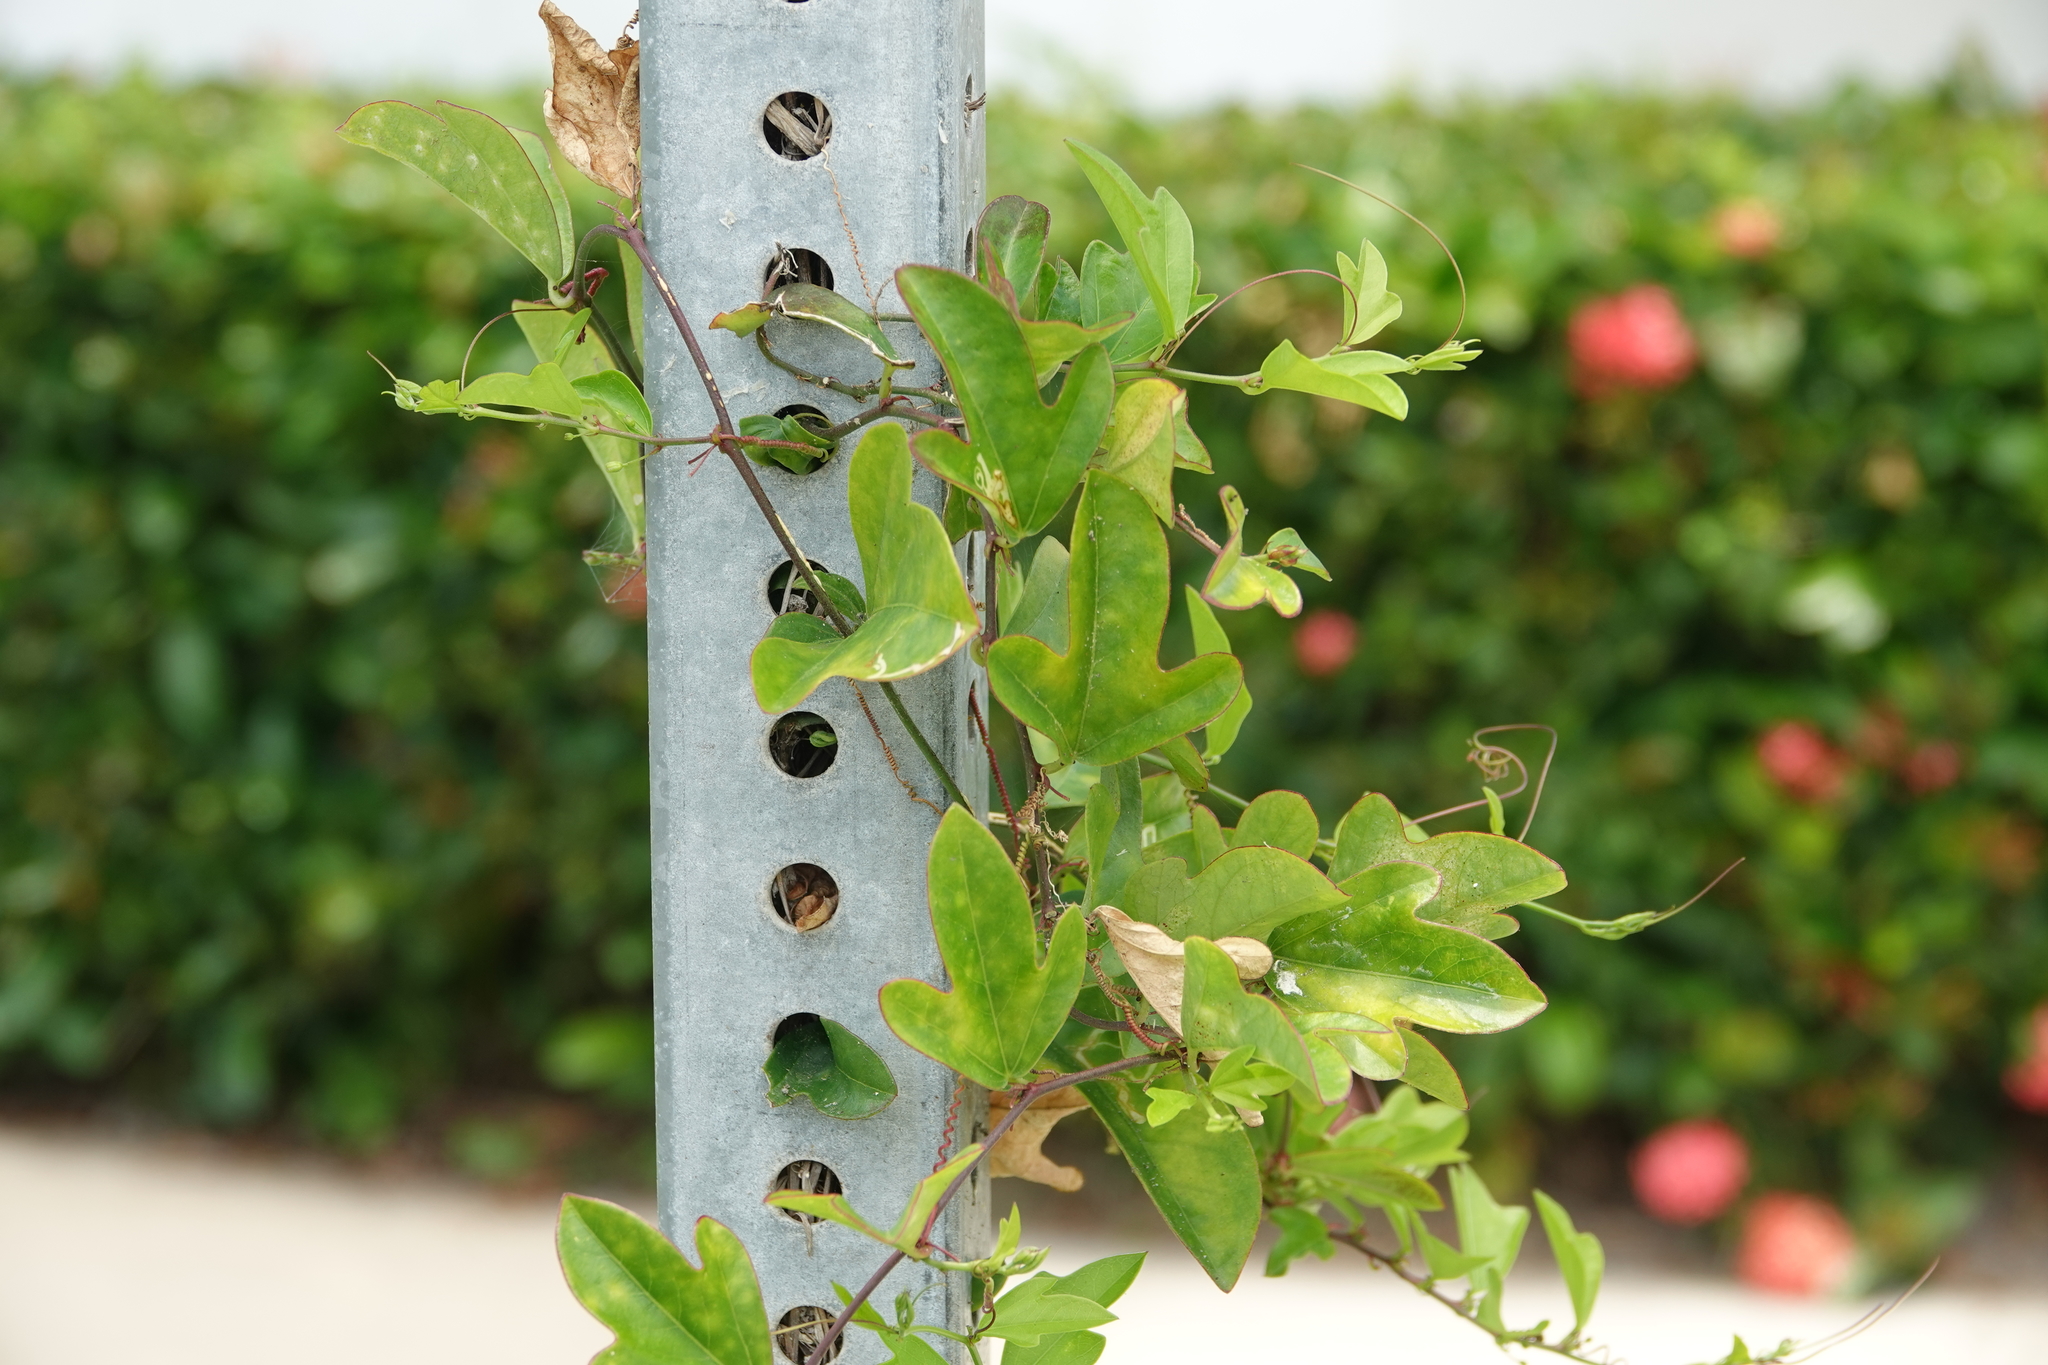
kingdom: Plantae
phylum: Tracheophyta
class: Magnoliopsida
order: Malpighiales
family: Passifloraceae
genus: Passiflora
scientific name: Passiflora pallida
